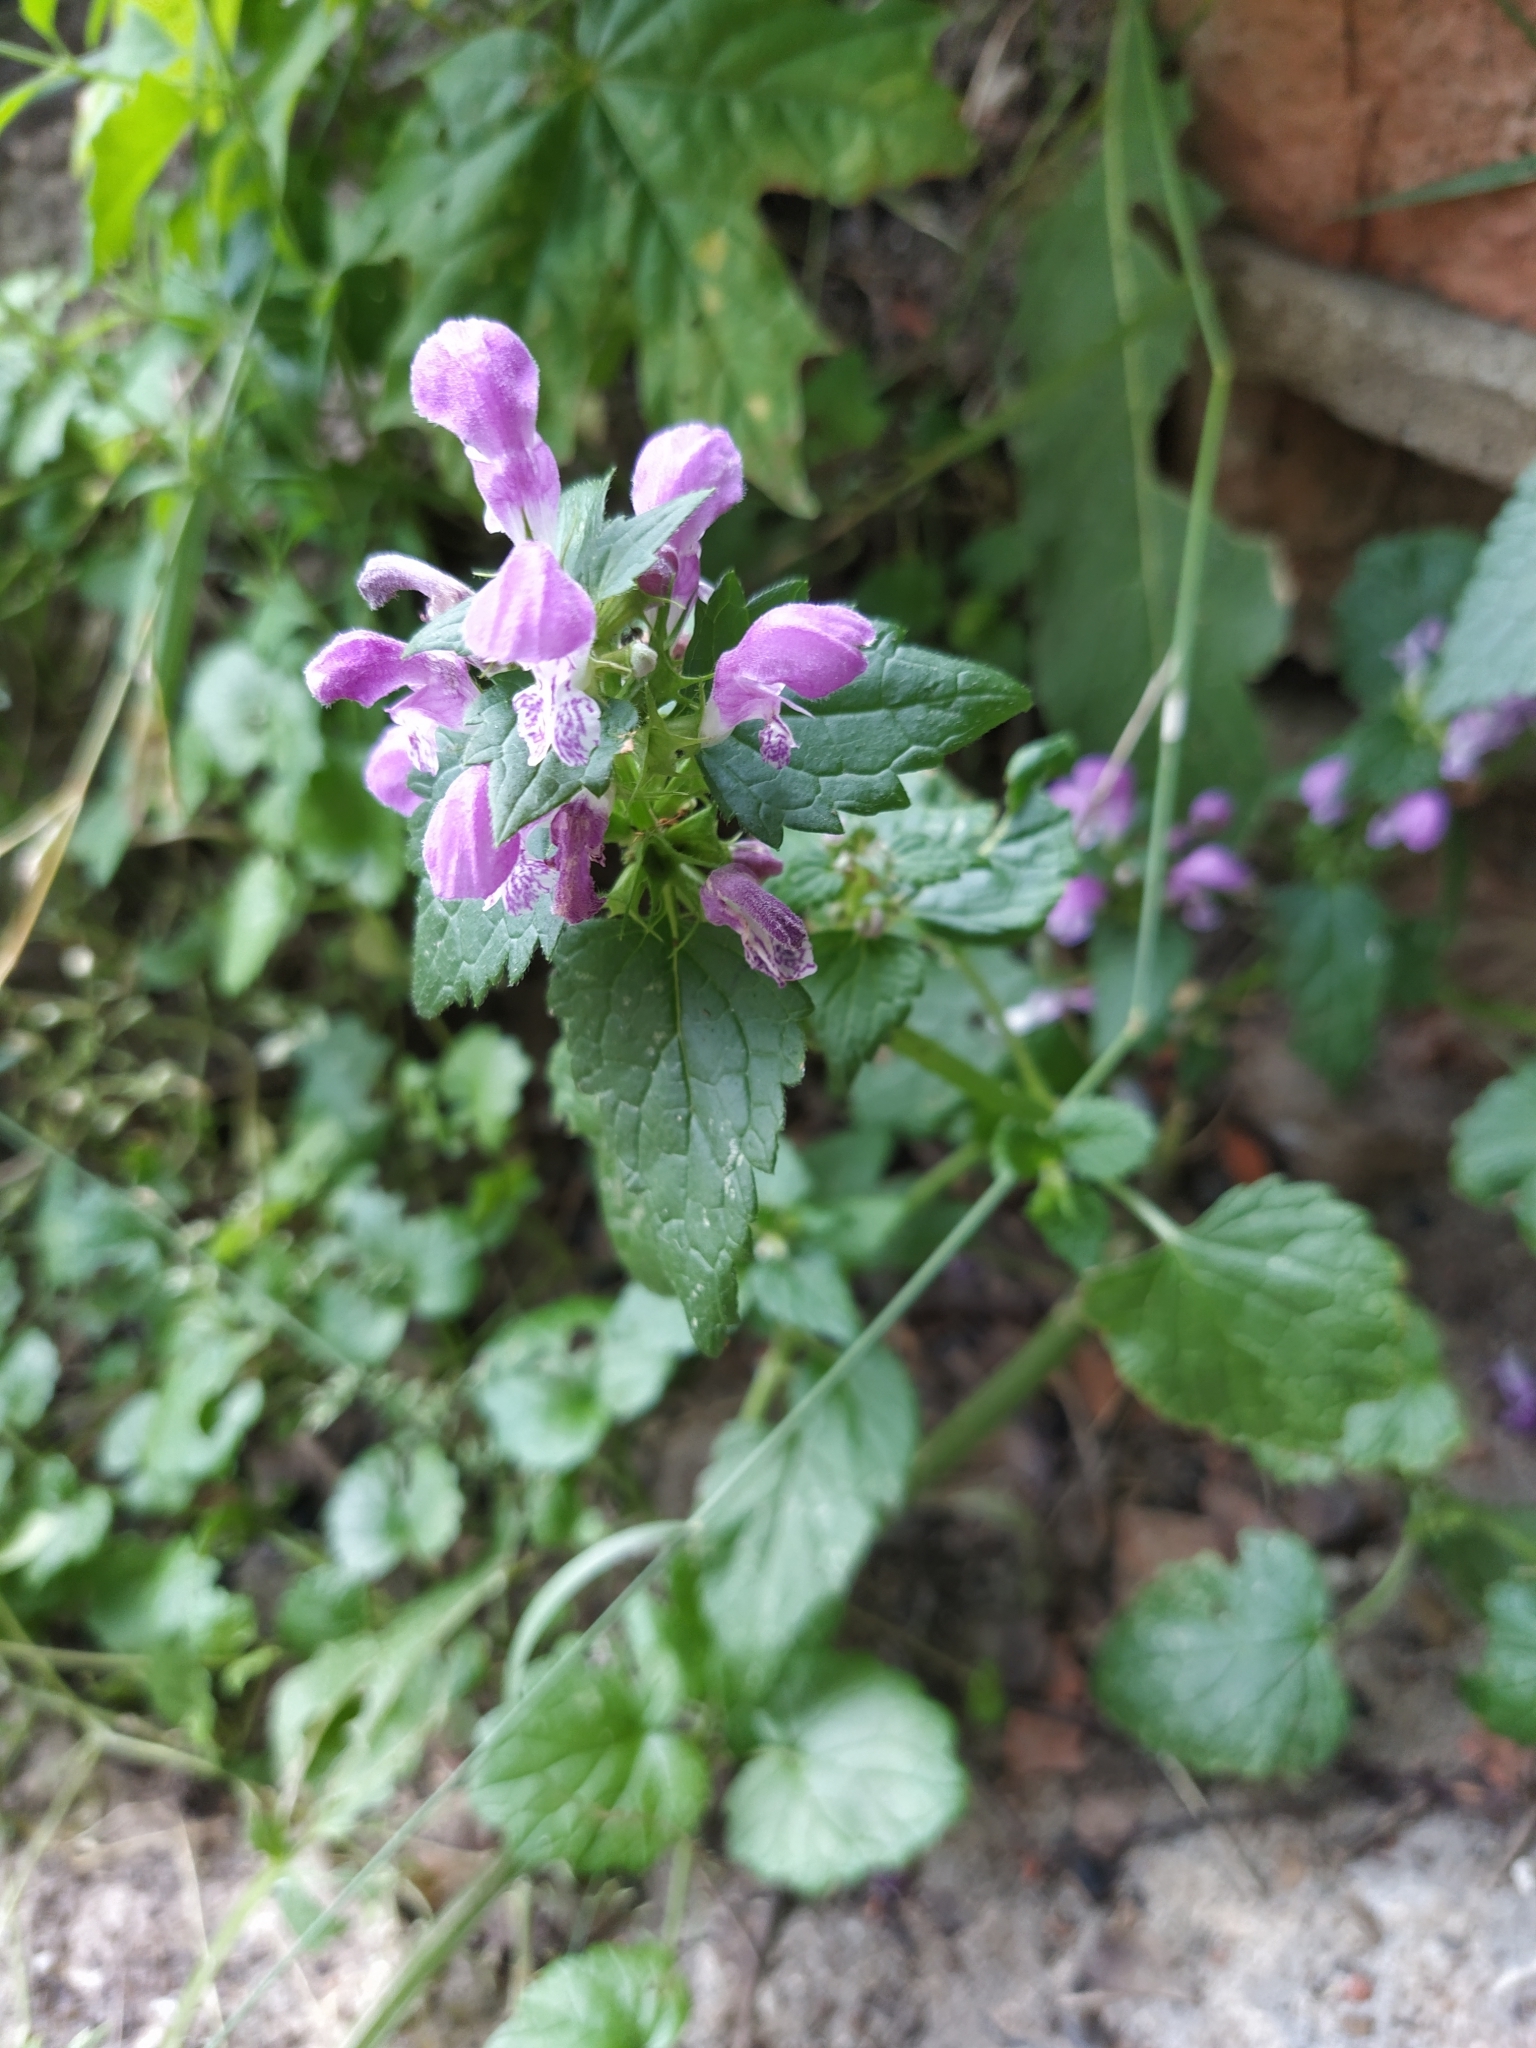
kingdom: Plantae
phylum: Tracheophyta
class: Magnoliopsida
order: Lamiales
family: Lamiaceae
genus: Lamium
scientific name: Lamium maculatum
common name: Spotted dead-nettle
